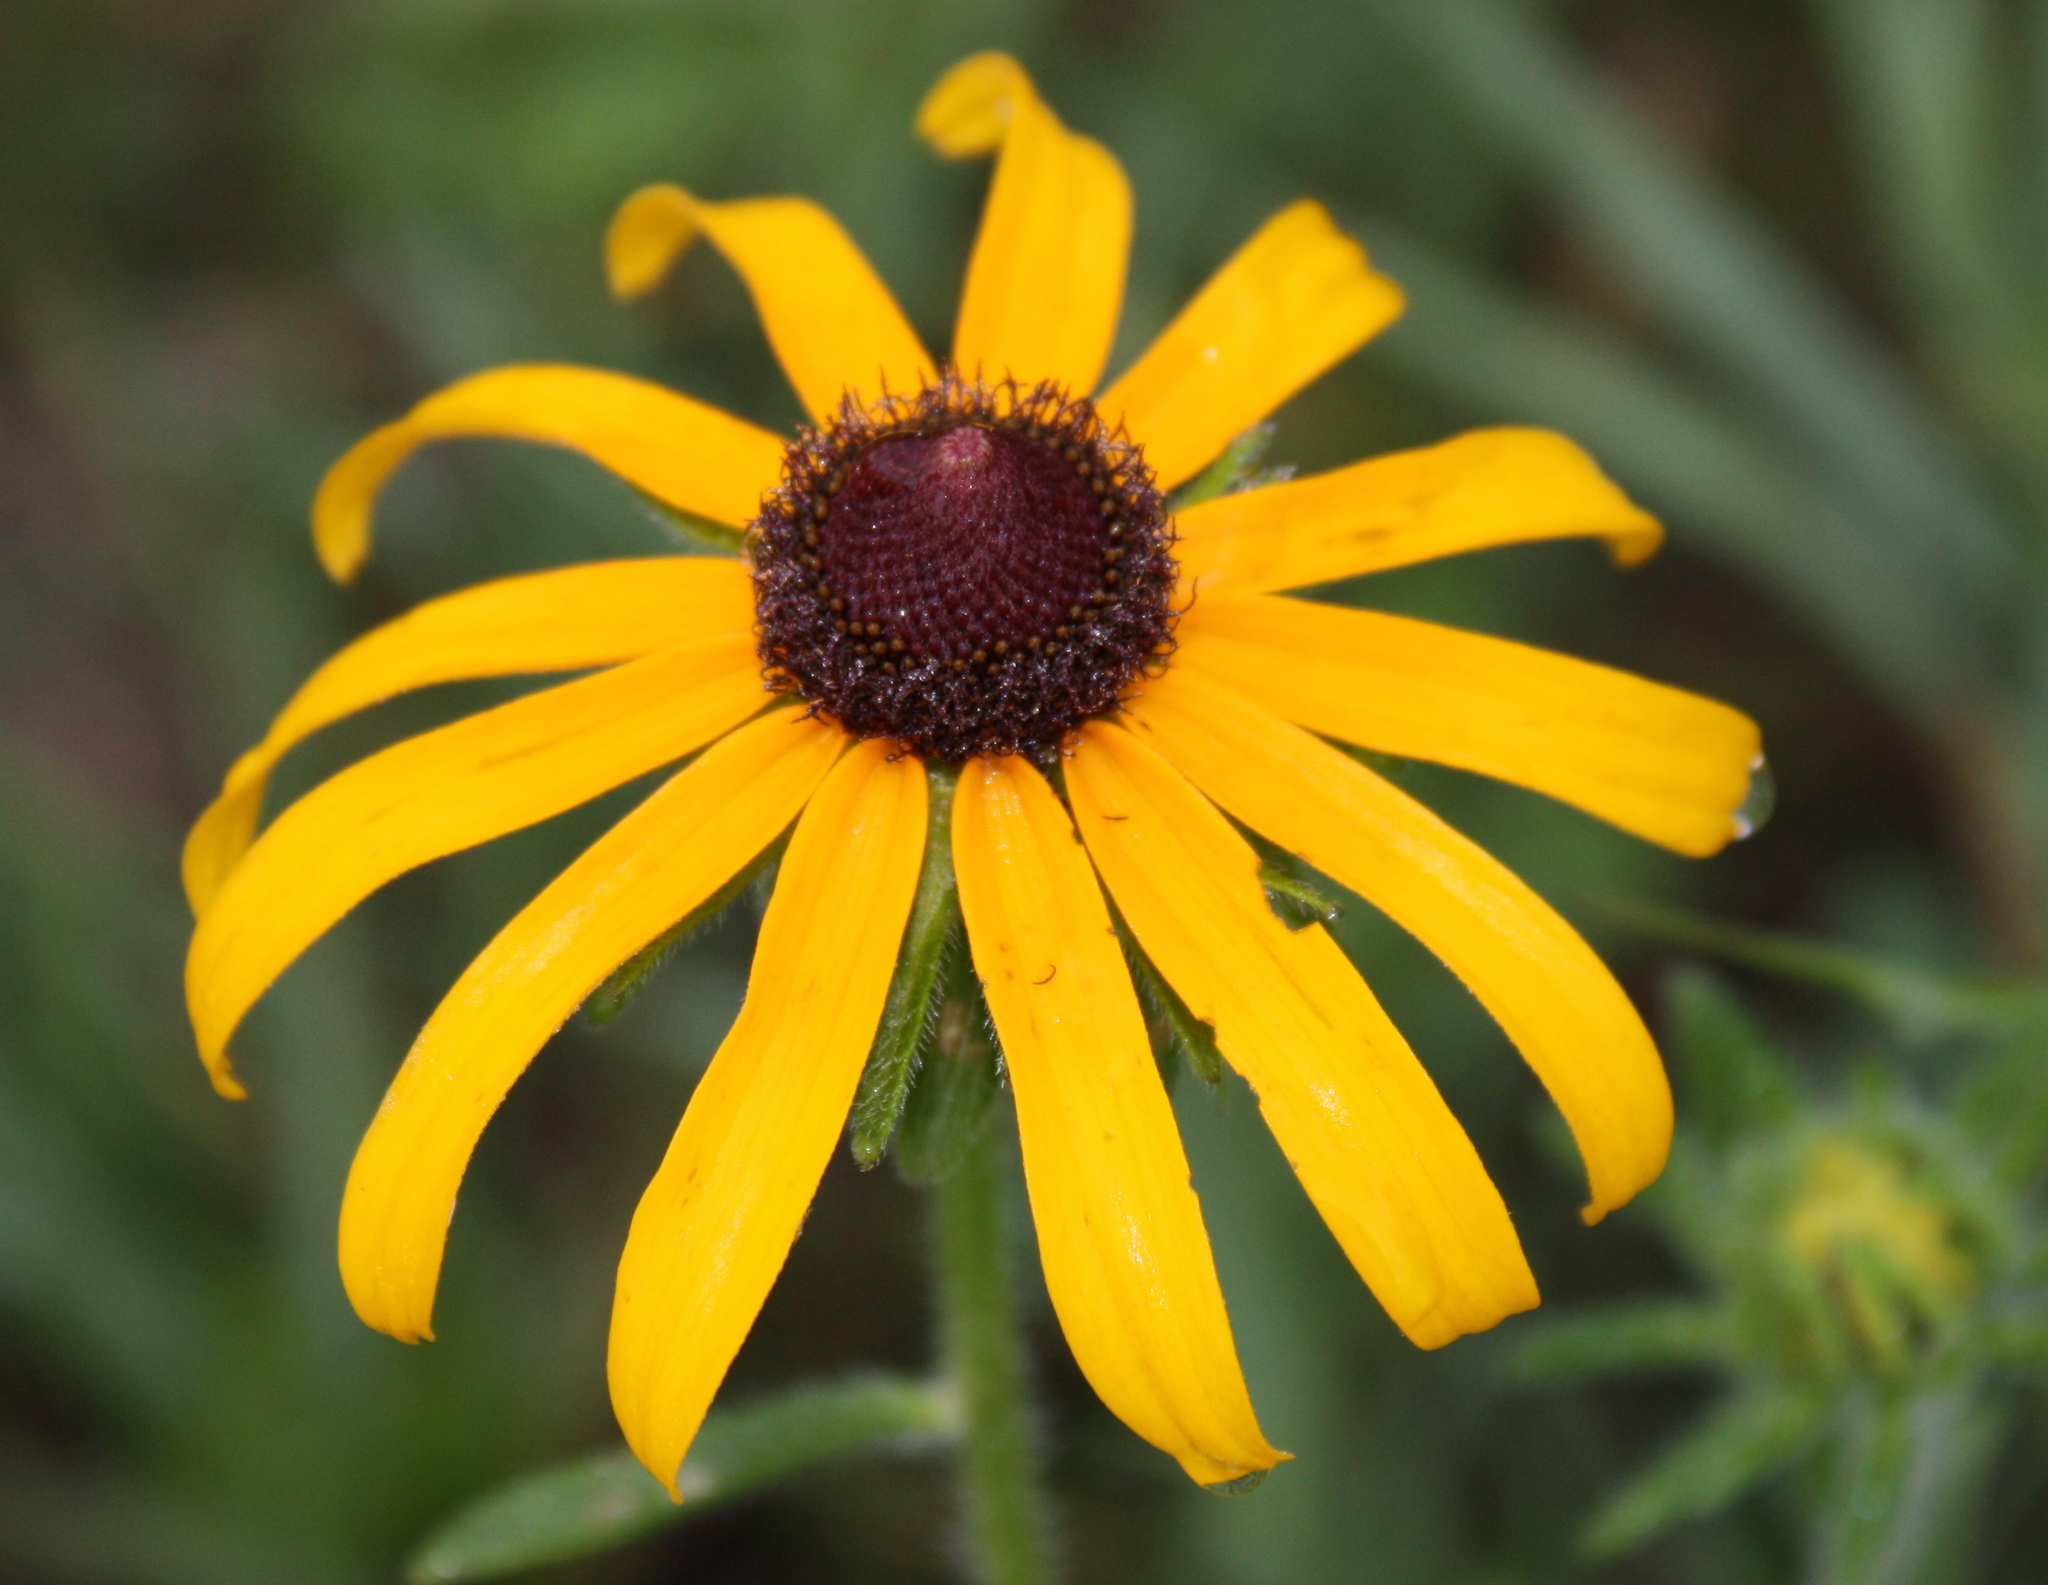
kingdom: Plantae
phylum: Tracheophyta
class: Magnoliopsida
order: Asterales
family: Asteraceae
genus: Rudbeckia
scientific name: Rudbeckia hirta
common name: Black-eyed-susan
